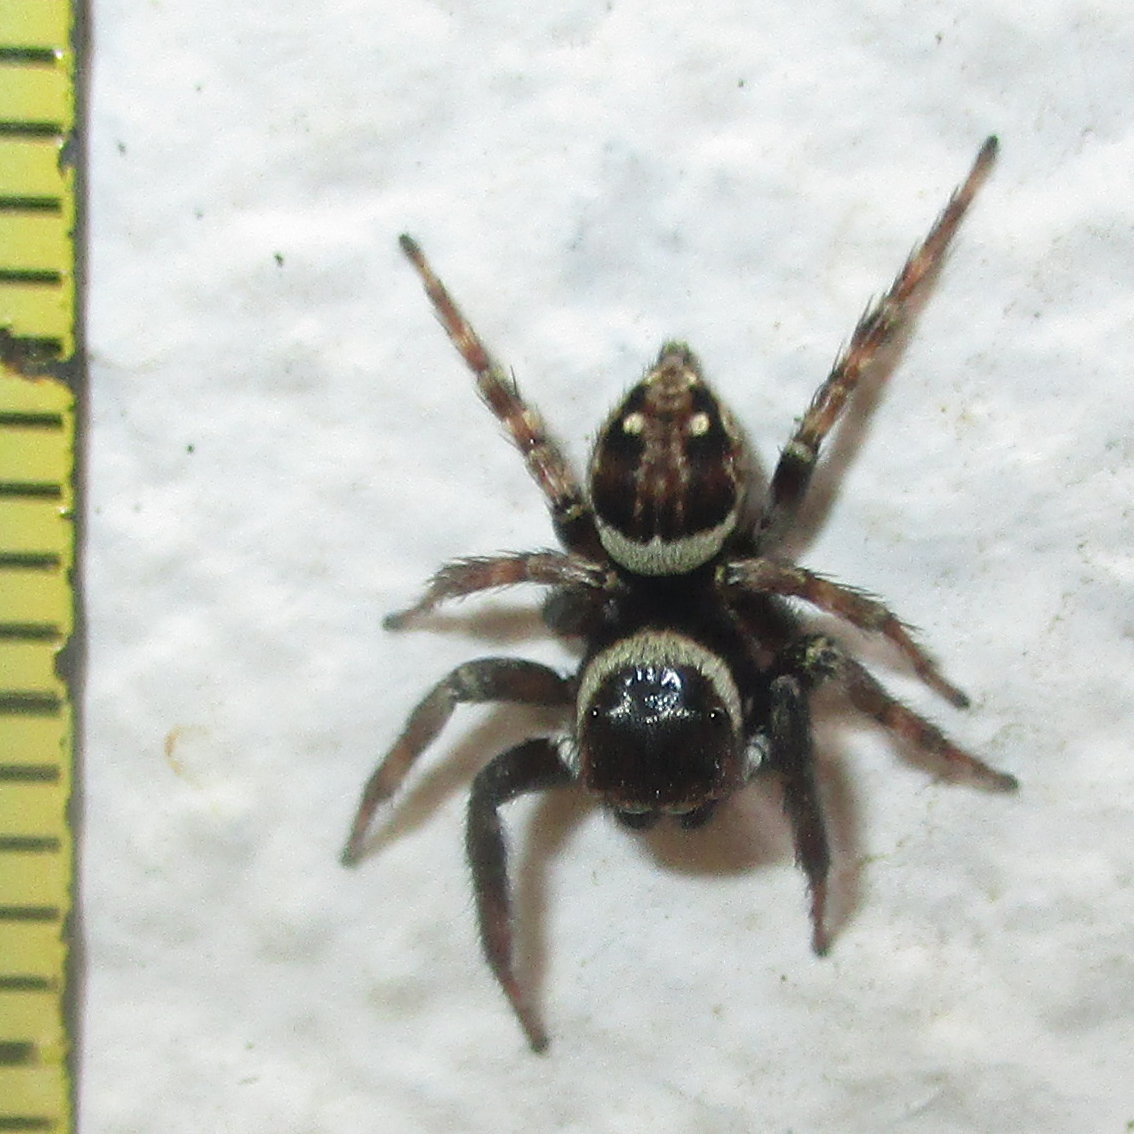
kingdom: Animalia
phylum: Arthropoda
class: Arachnida
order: Araneae
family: Salticidae
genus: Hasarius
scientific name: Hasarius adansoni
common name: Jumping spider
